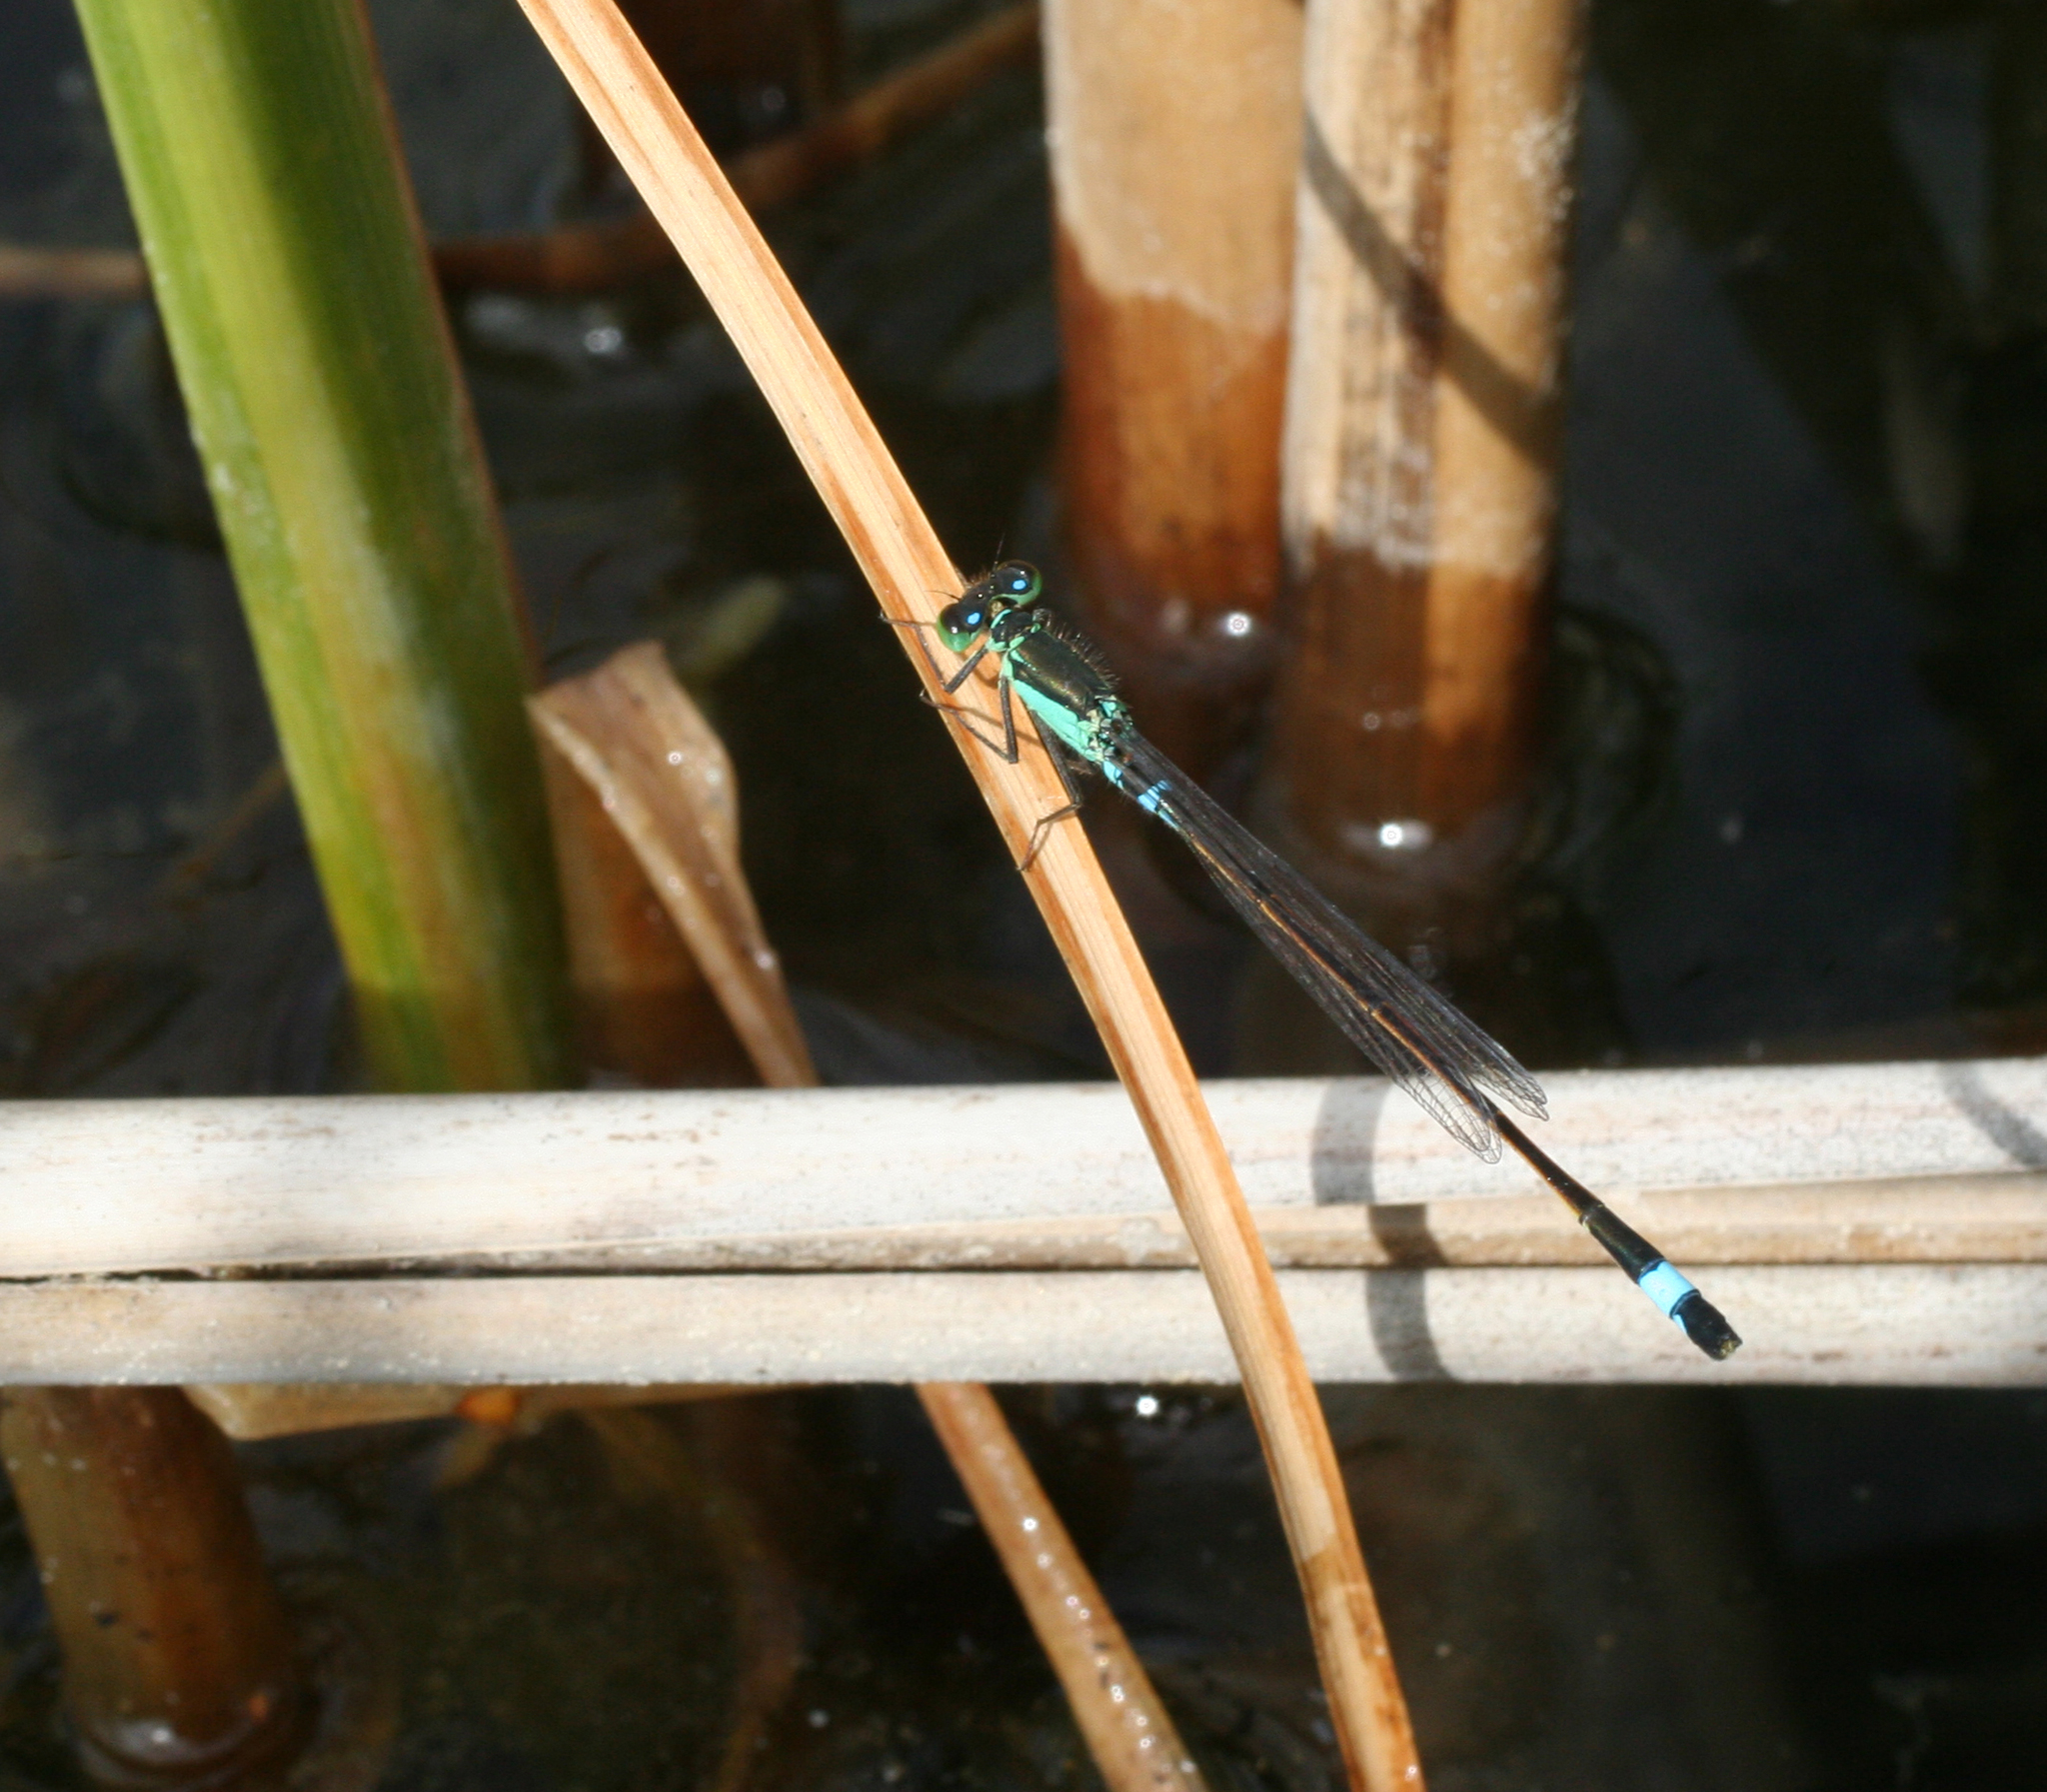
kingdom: Animalia
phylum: Arthropoda
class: Insecta
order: Odonata
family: Coenagrionidae
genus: Ischnura
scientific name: Ischnura aralensis
